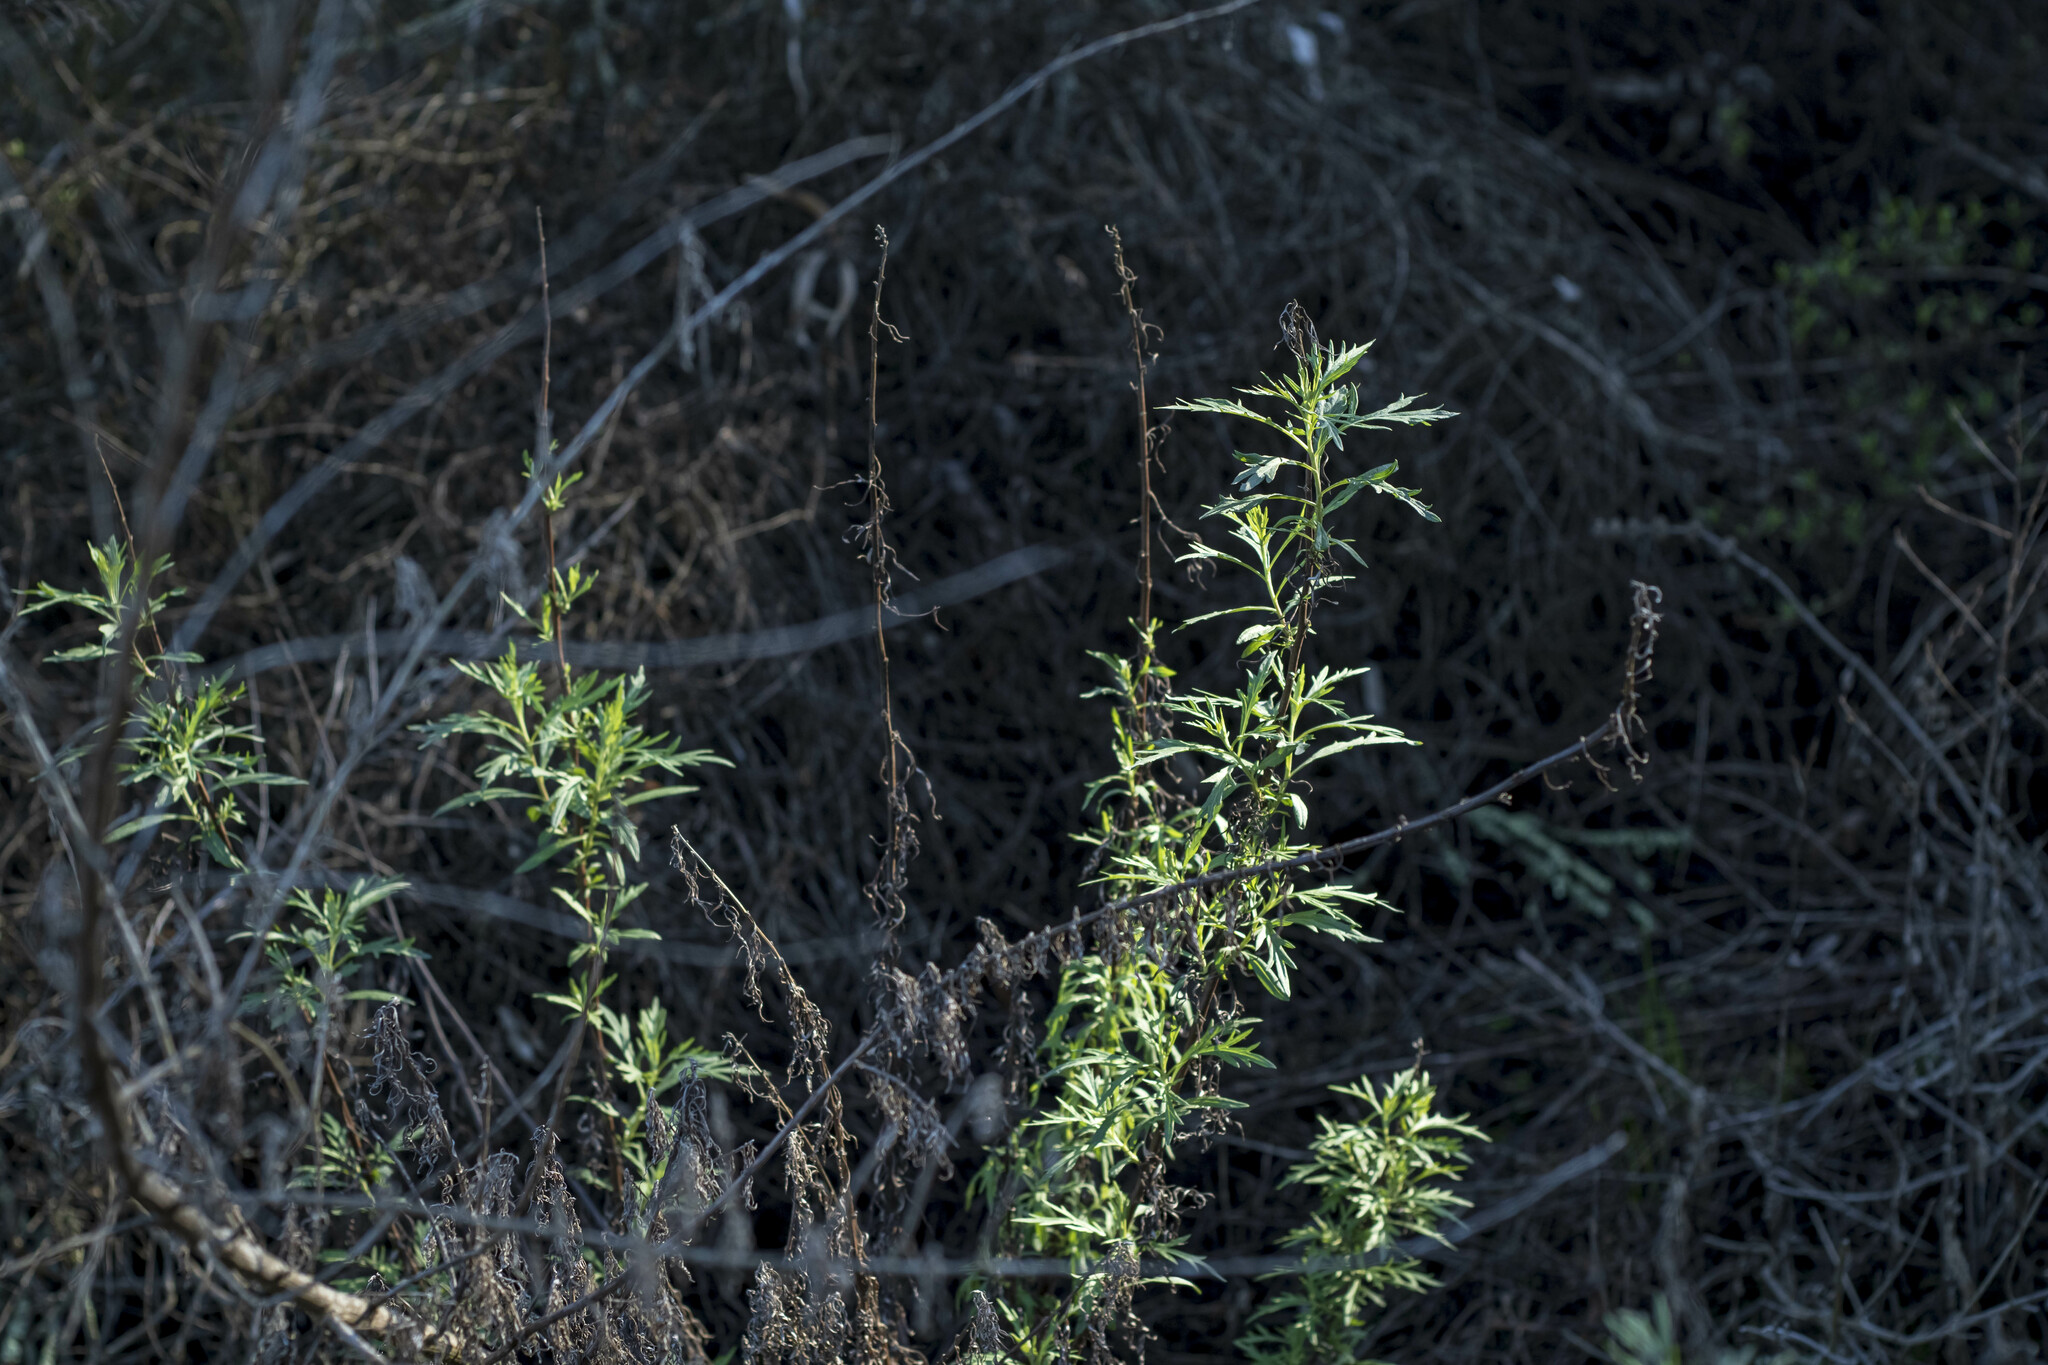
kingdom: Plantae
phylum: Tracheophyta
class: Magnoliopsida
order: Asterales
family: Asteraceae
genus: Artemisia
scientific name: Artemisia palmeri
